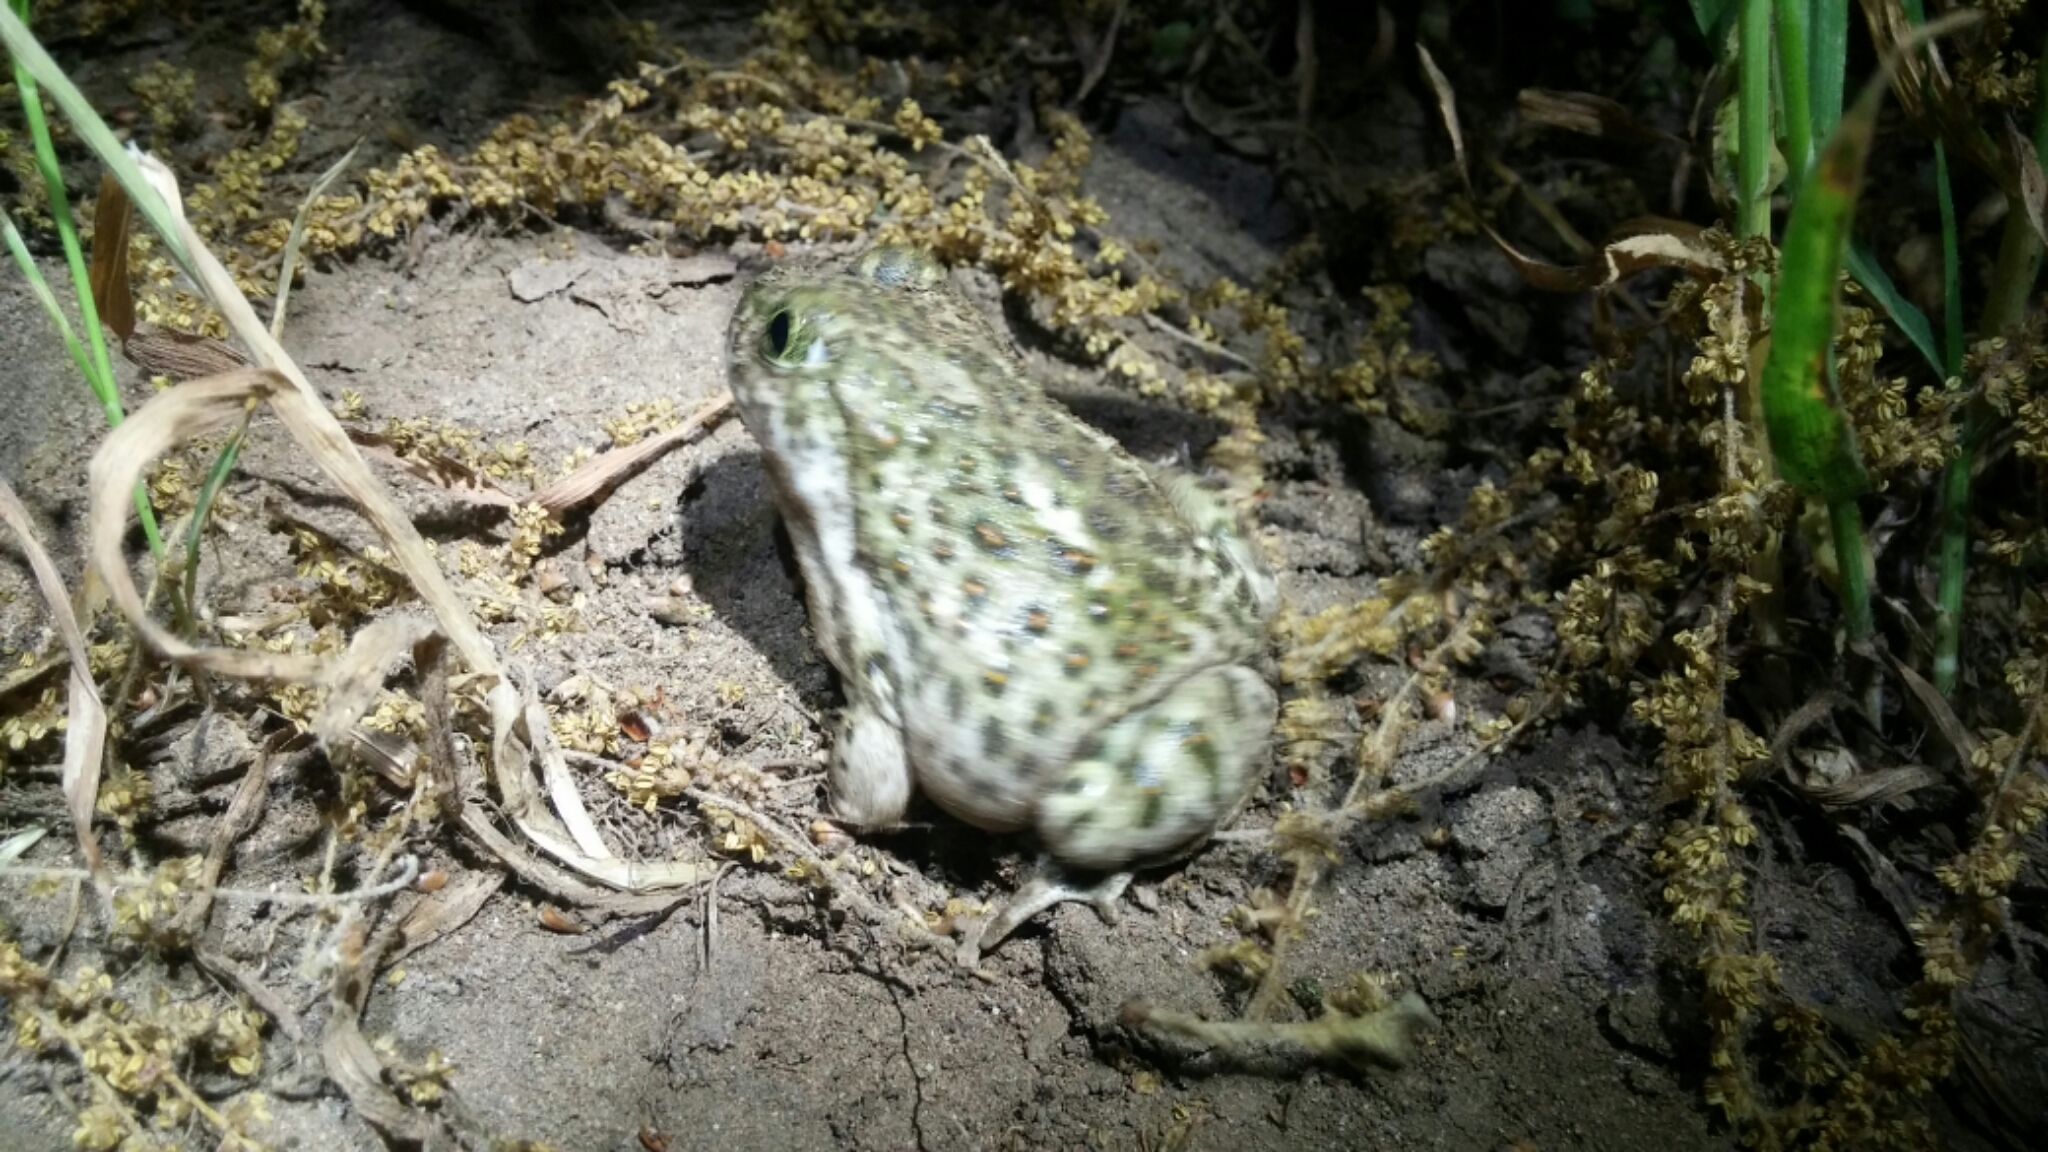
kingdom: Animalia
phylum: Chordata
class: Amphibia
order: Anura
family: Scaphiopodidae
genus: Spea
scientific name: Spea hammondii
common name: Western spadefoot toad
